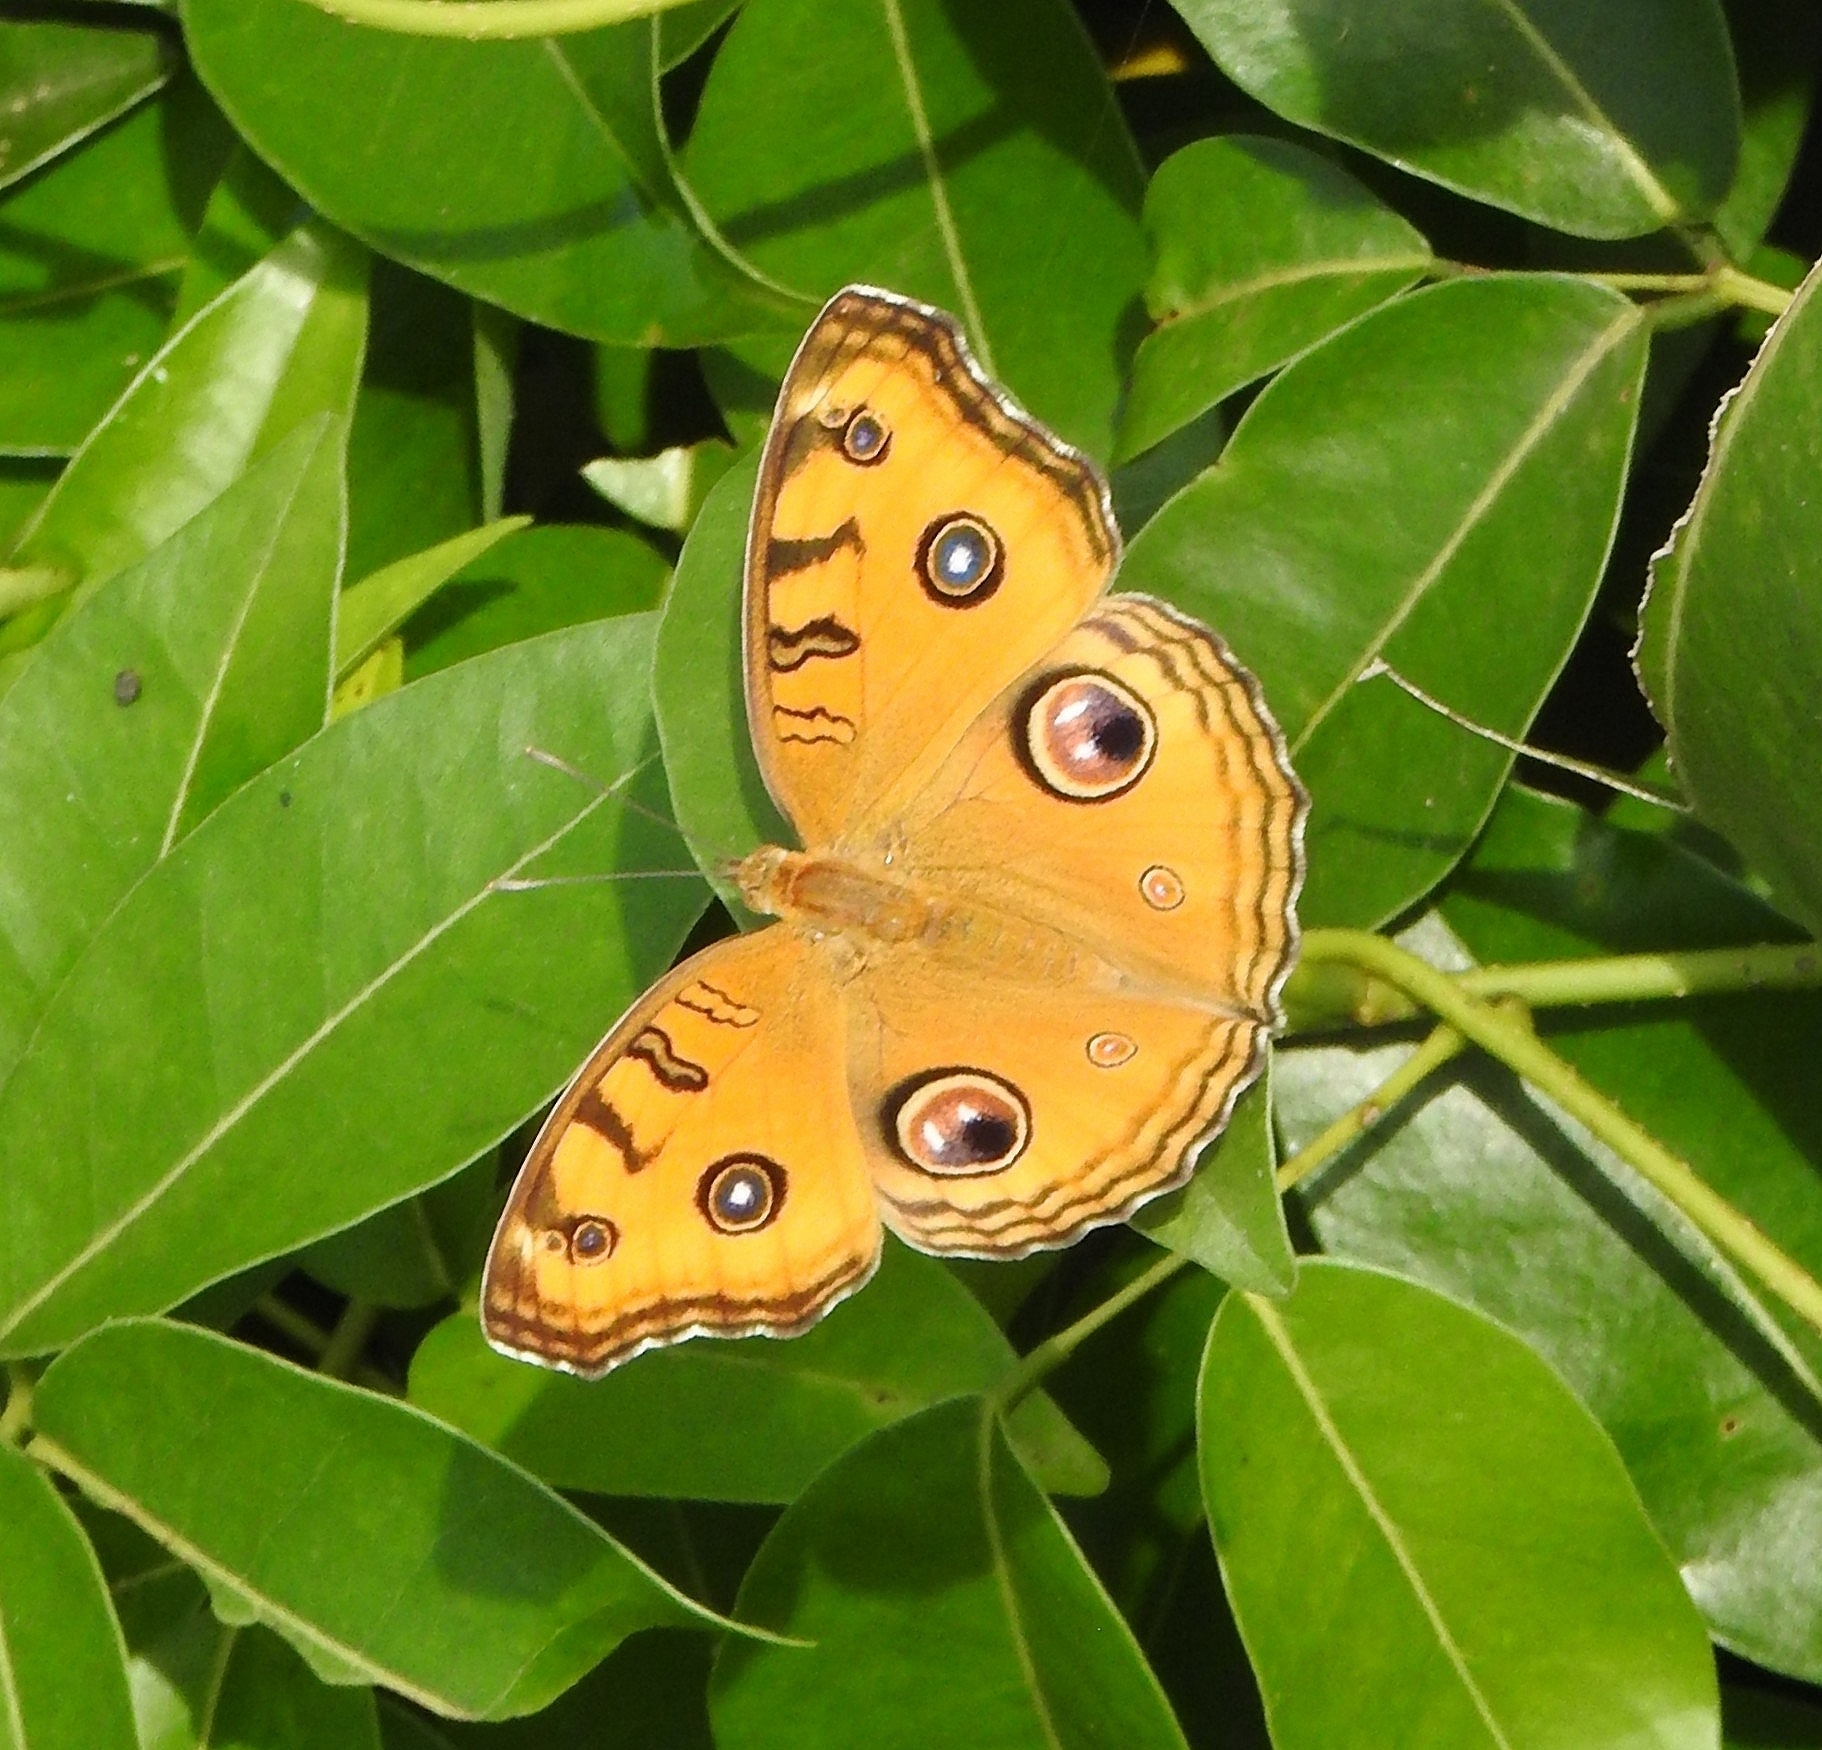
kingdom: Animalia
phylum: Arthropoda
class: Insecta
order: Lepidoptera
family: Nymphalidae
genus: Junonia
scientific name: Junonia almana
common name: Peacock pansy
